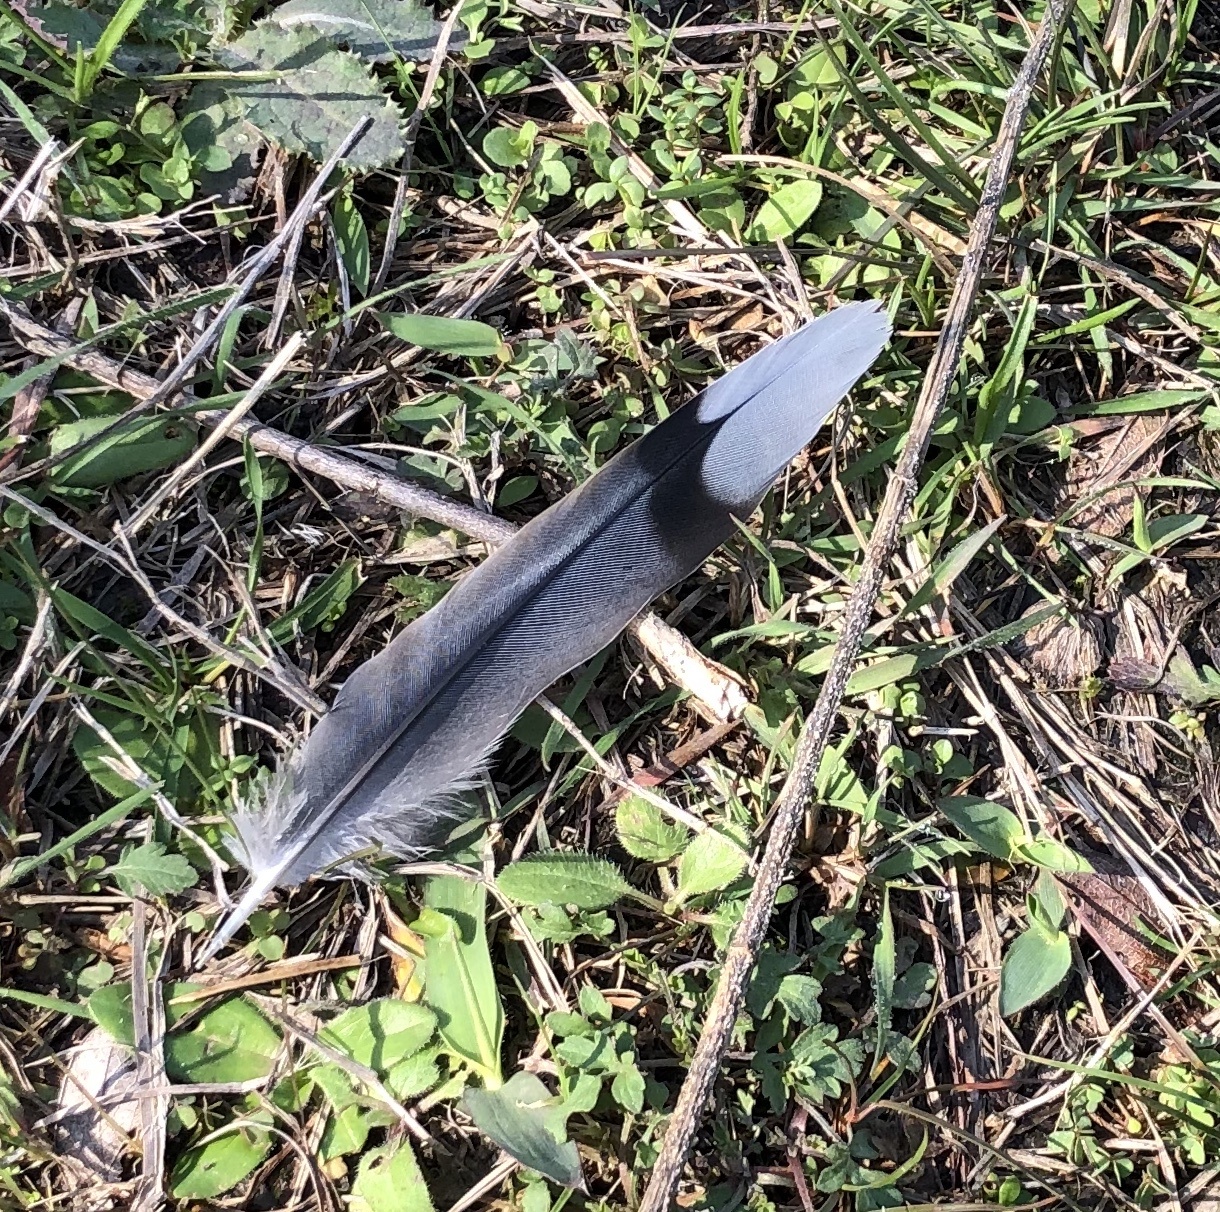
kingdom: Animalia
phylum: Chordata
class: Aves
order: Columbiformes
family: Columbidae
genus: Zenaida
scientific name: Zenaida macroura
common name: Mourning dove
